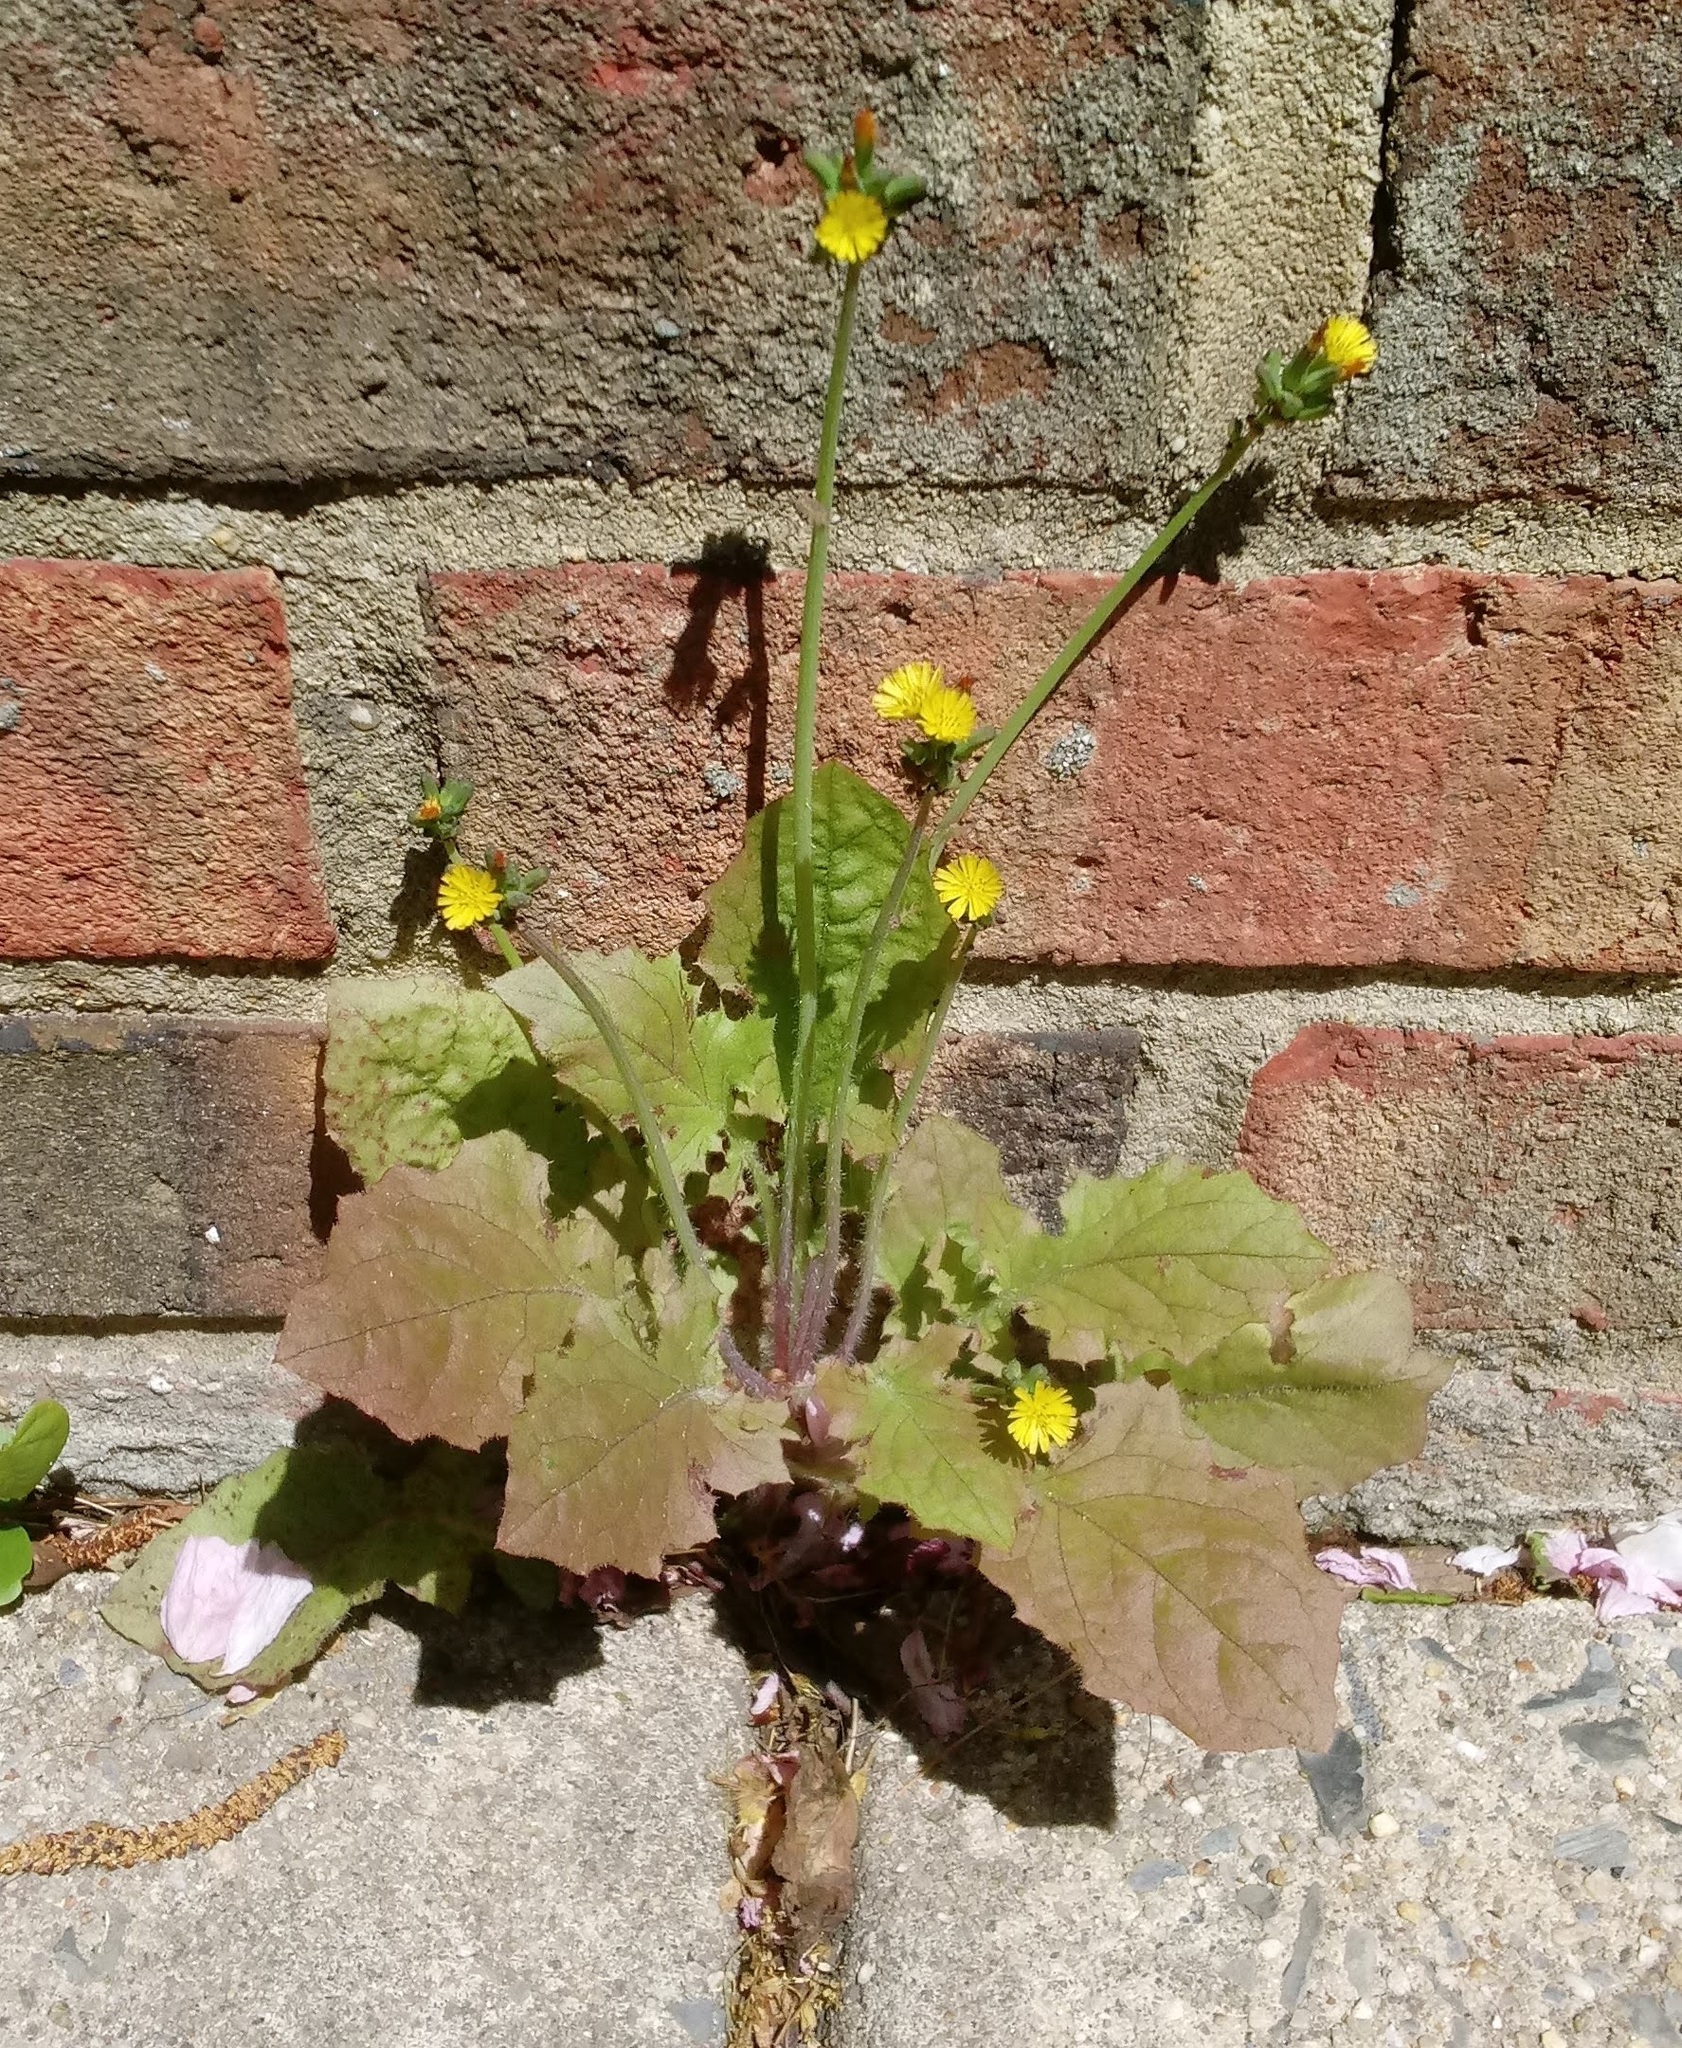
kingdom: Plantae
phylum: Tracheophyta
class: Magnoliopsida
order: Asterales
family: Asteraceae
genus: Youngia
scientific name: Youngia japonica
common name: Oriental false hawksbeard
